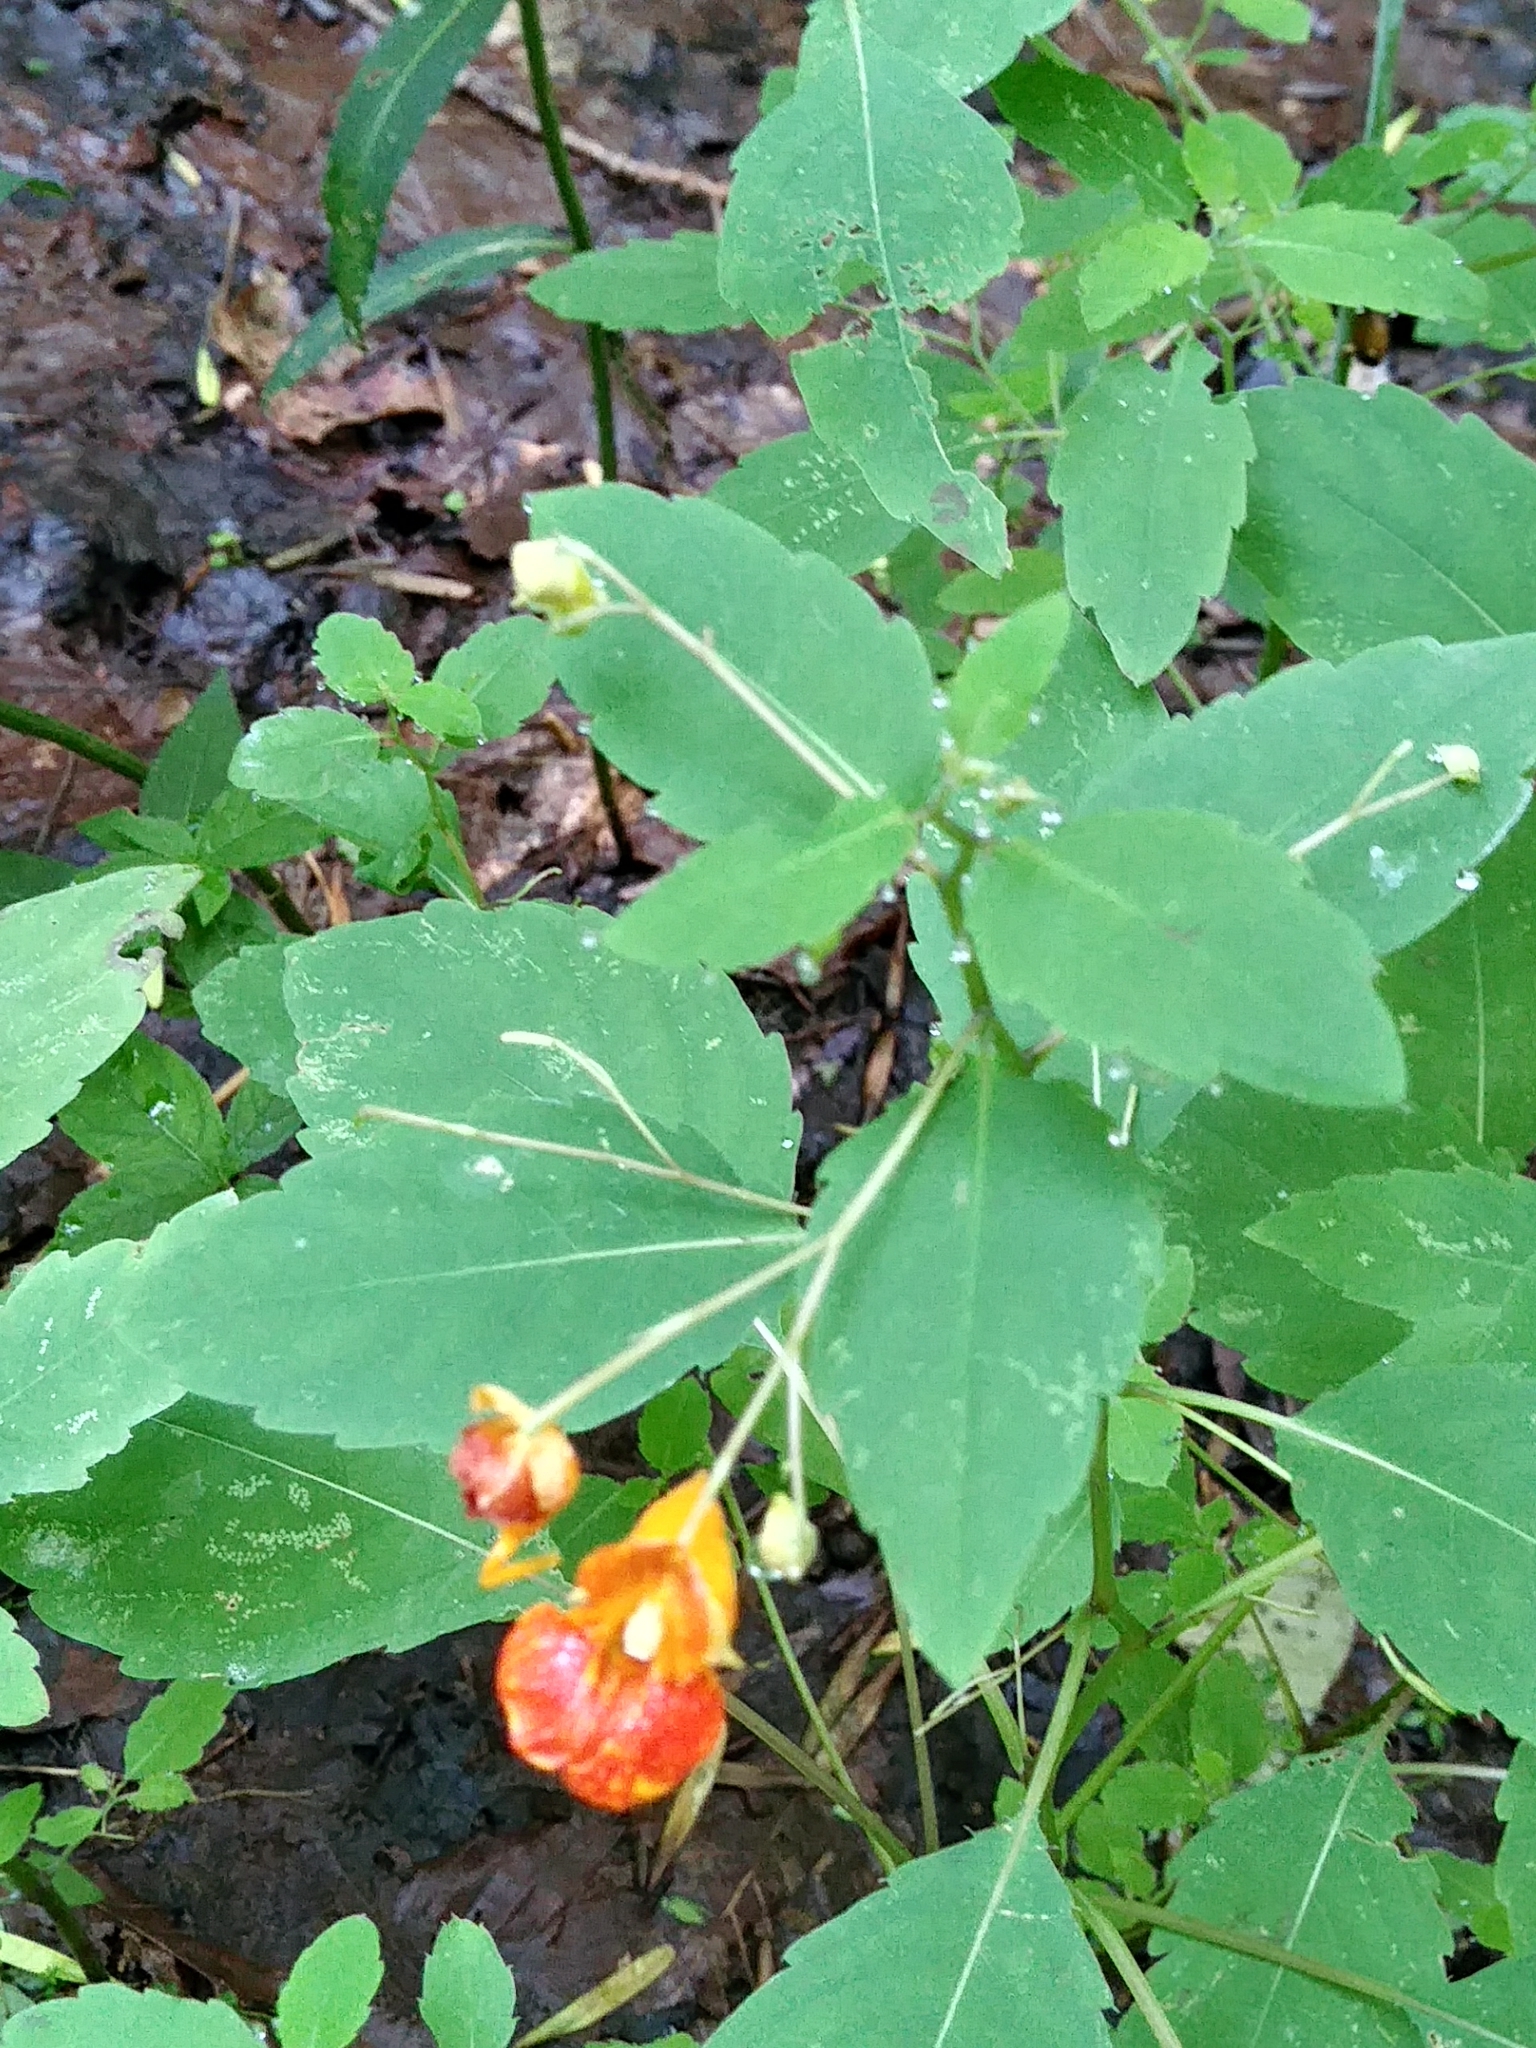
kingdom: Plantae
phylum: Tracheophyta
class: Magnoliopsida
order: Ericales
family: Balsaminaceae
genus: Impatiens
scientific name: Impatiens capensis
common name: Orange balsam
